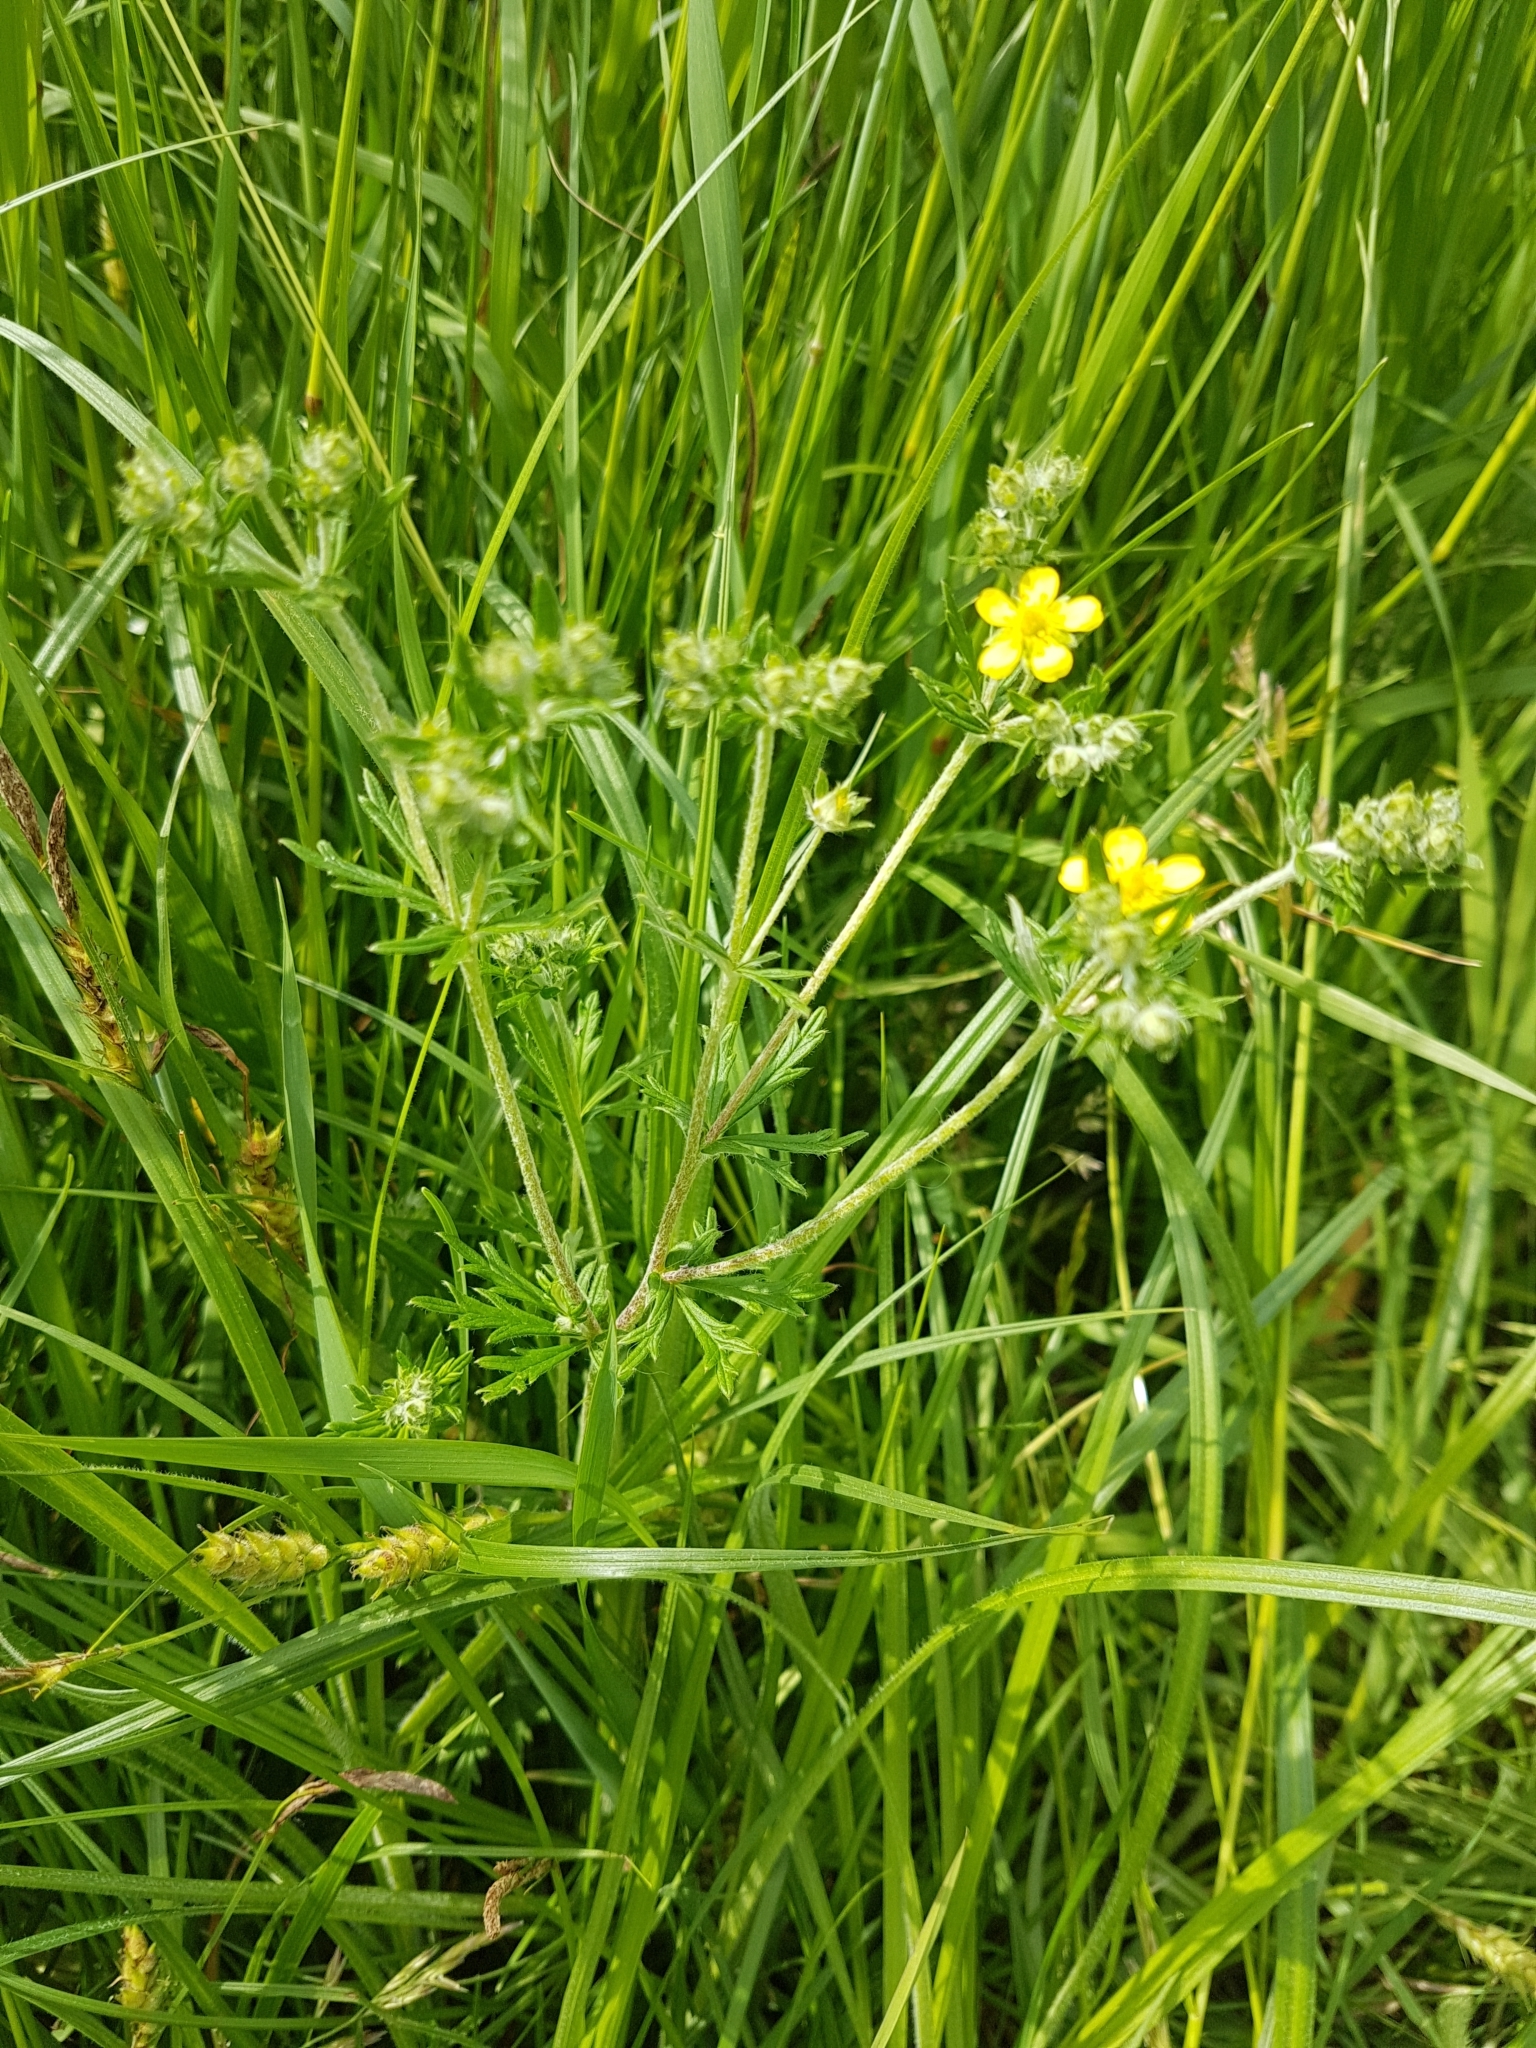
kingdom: Plantae
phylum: Tracheophyta
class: Magnoliopsida
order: Rosales
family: Rosaceae
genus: Potentilla
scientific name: Potentilla argentea
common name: Hoary cinquefoil
